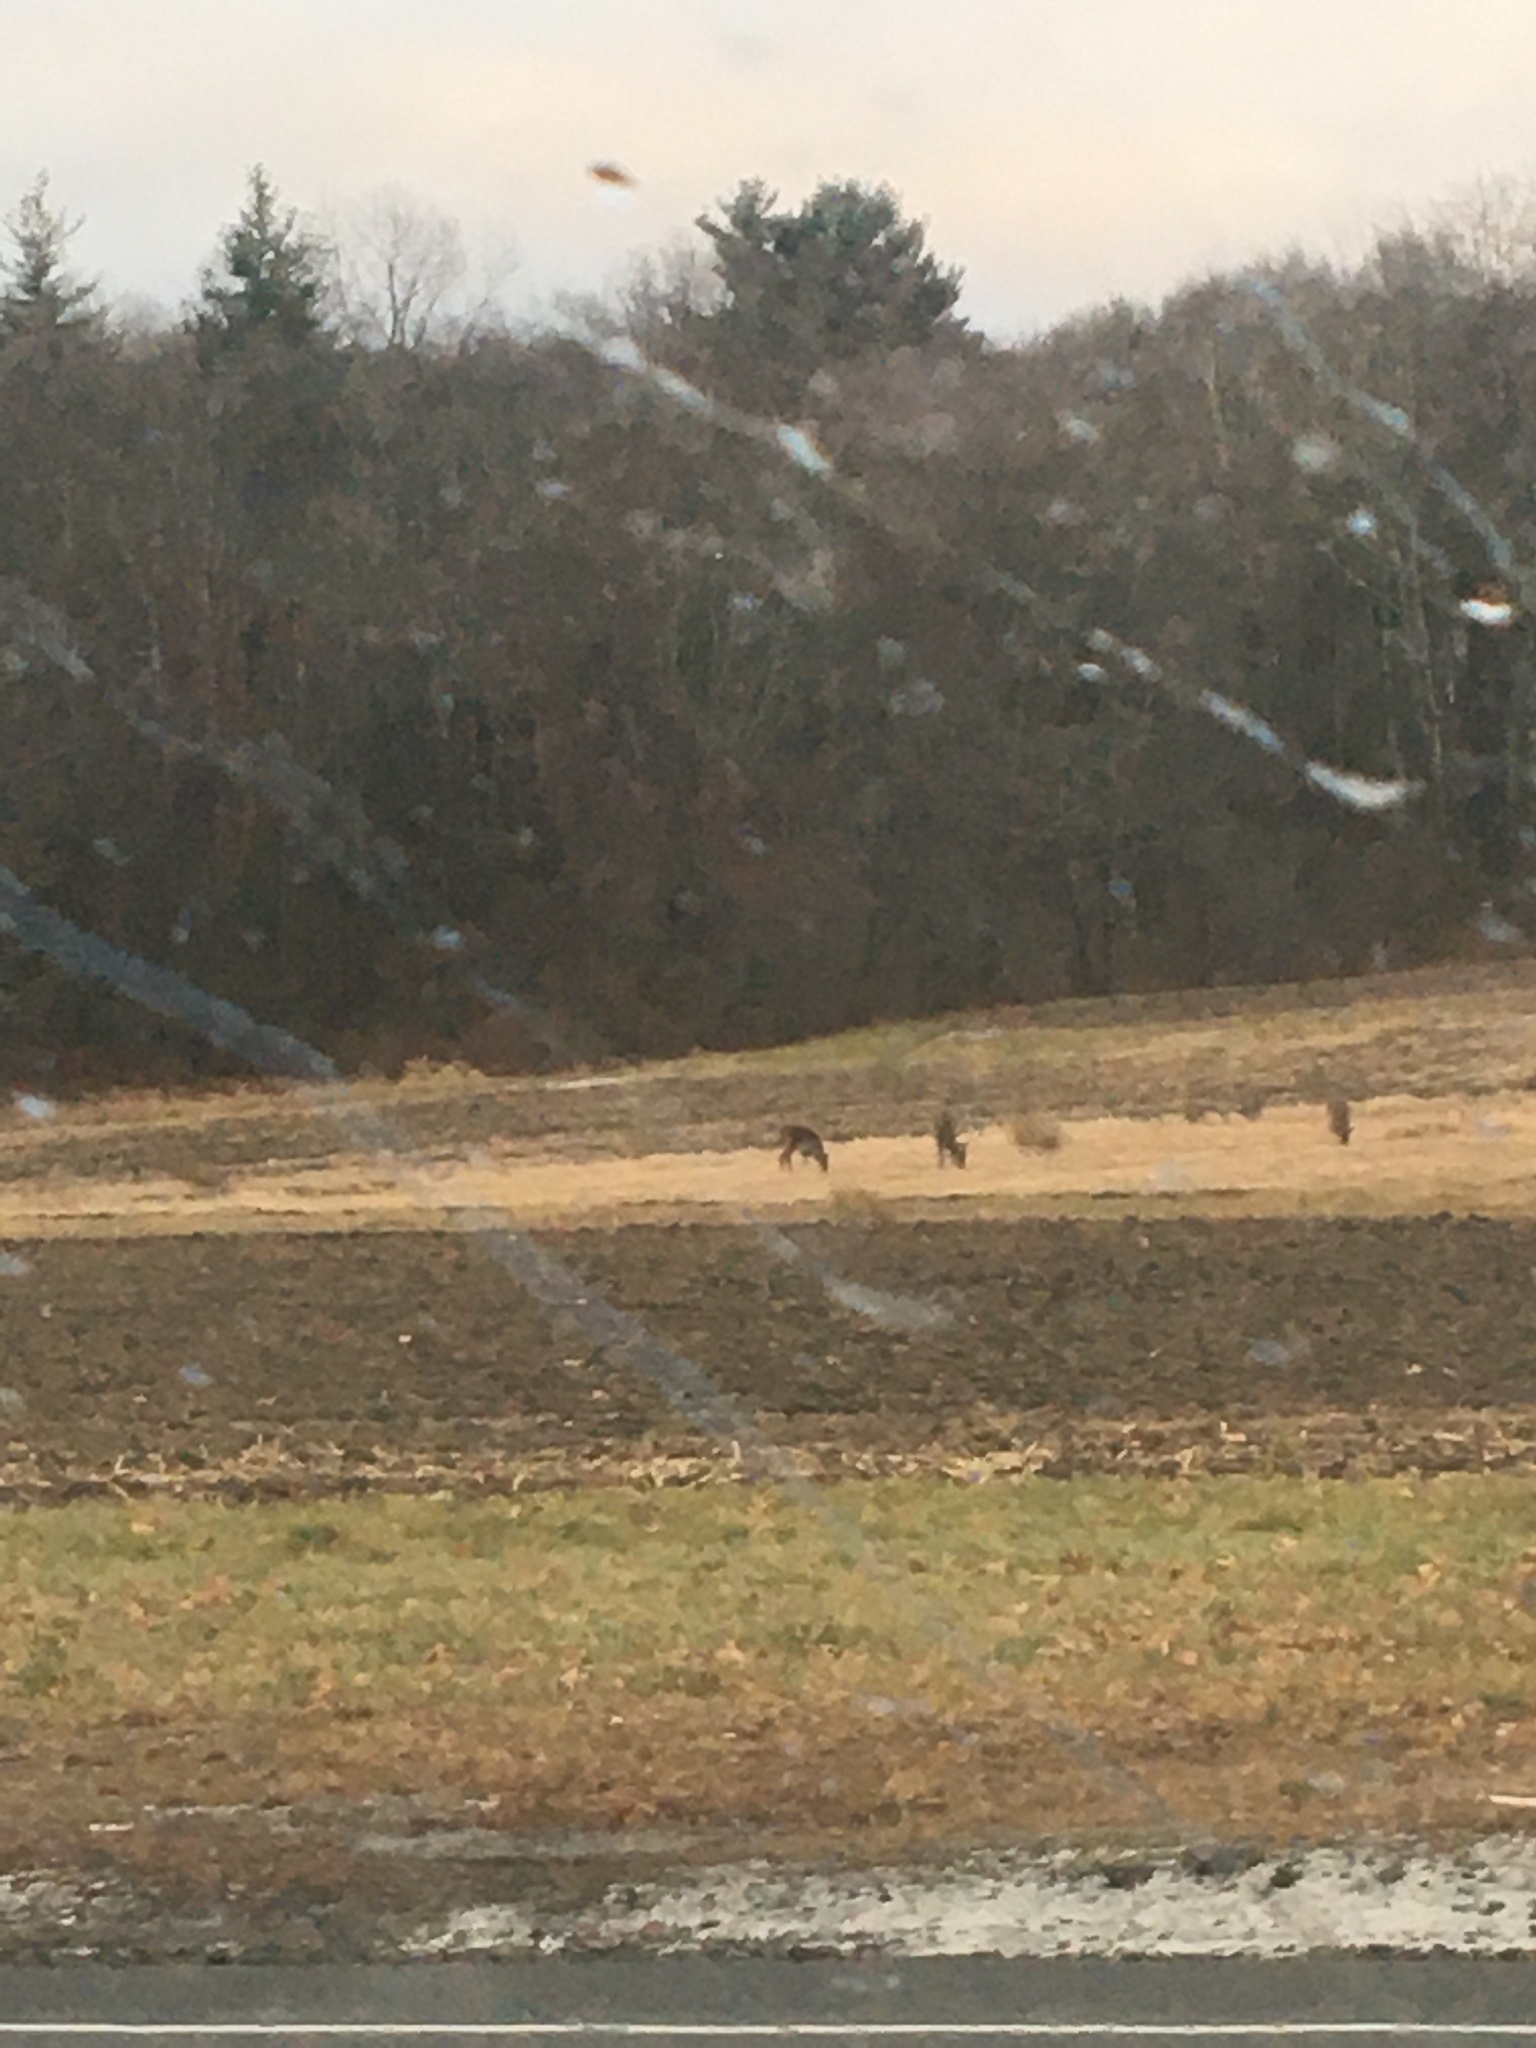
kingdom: Animalia
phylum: Chordata
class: Mammalia
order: Artiodactyla
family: Cervidae
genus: Odocoileus
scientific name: Odocoileus virginianus
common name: White-tailed deer
